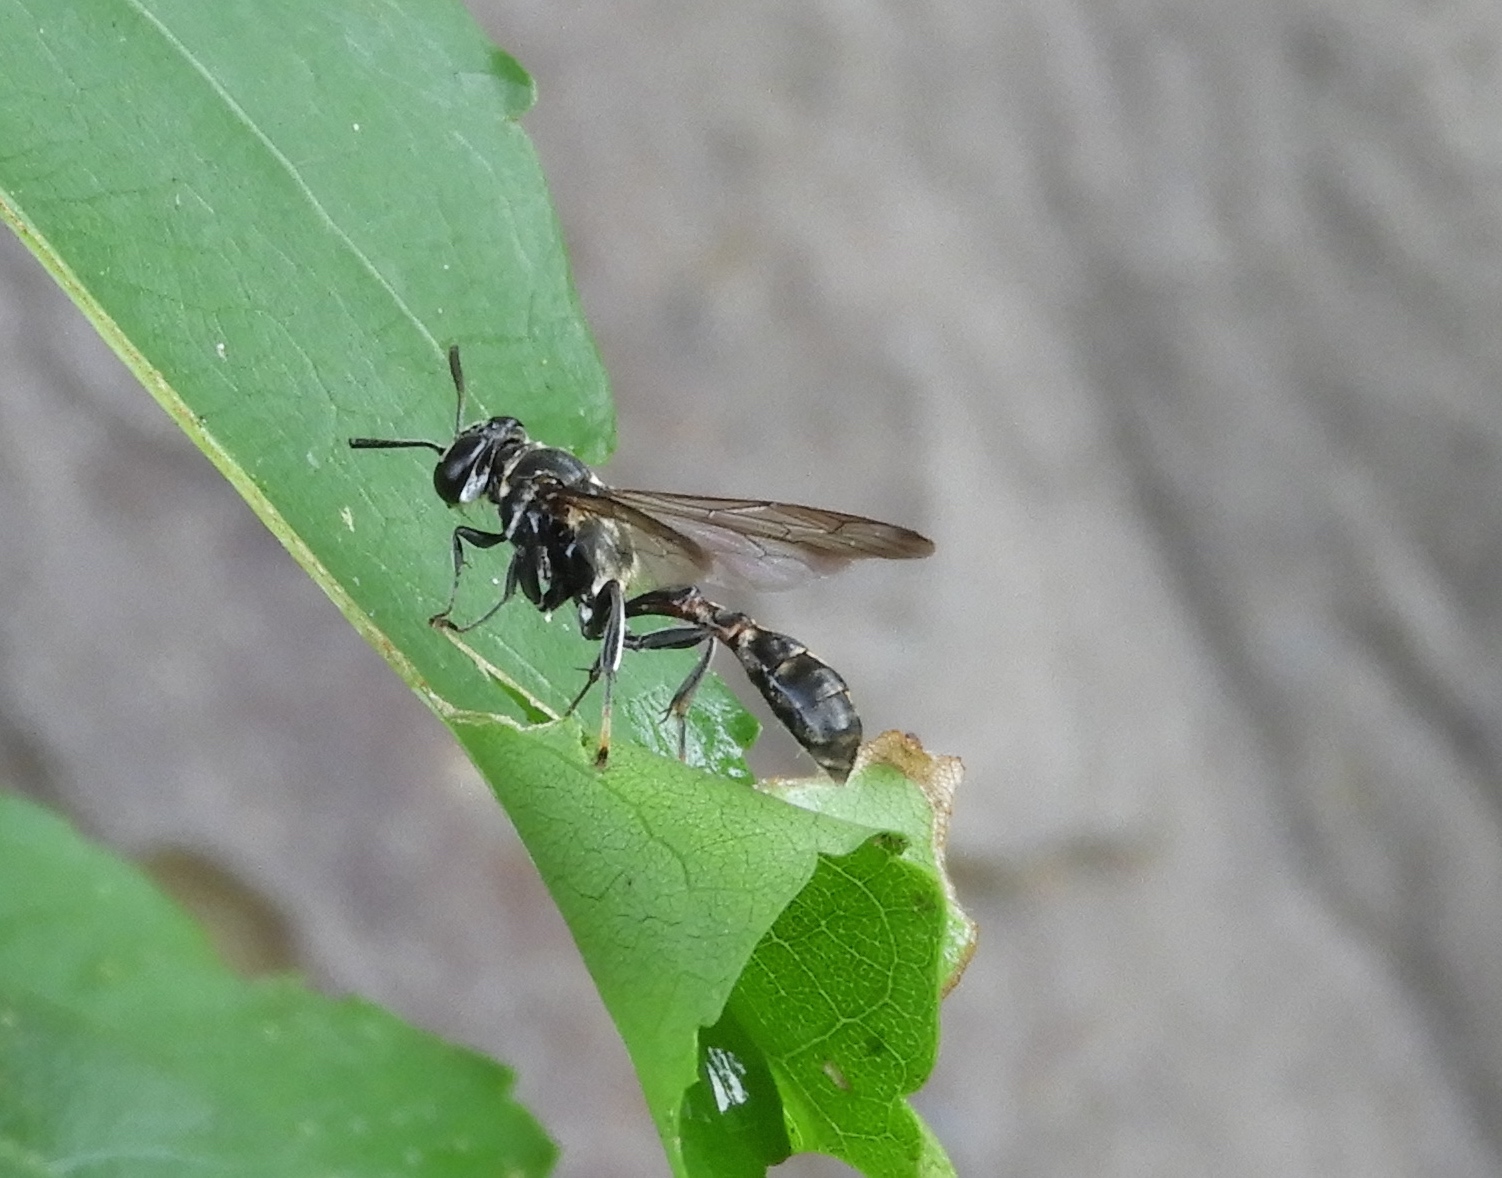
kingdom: Animalia
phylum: Arthropoda
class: Insecta
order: Hymenoptera
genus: Trypargilum
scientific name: Trypargilum
